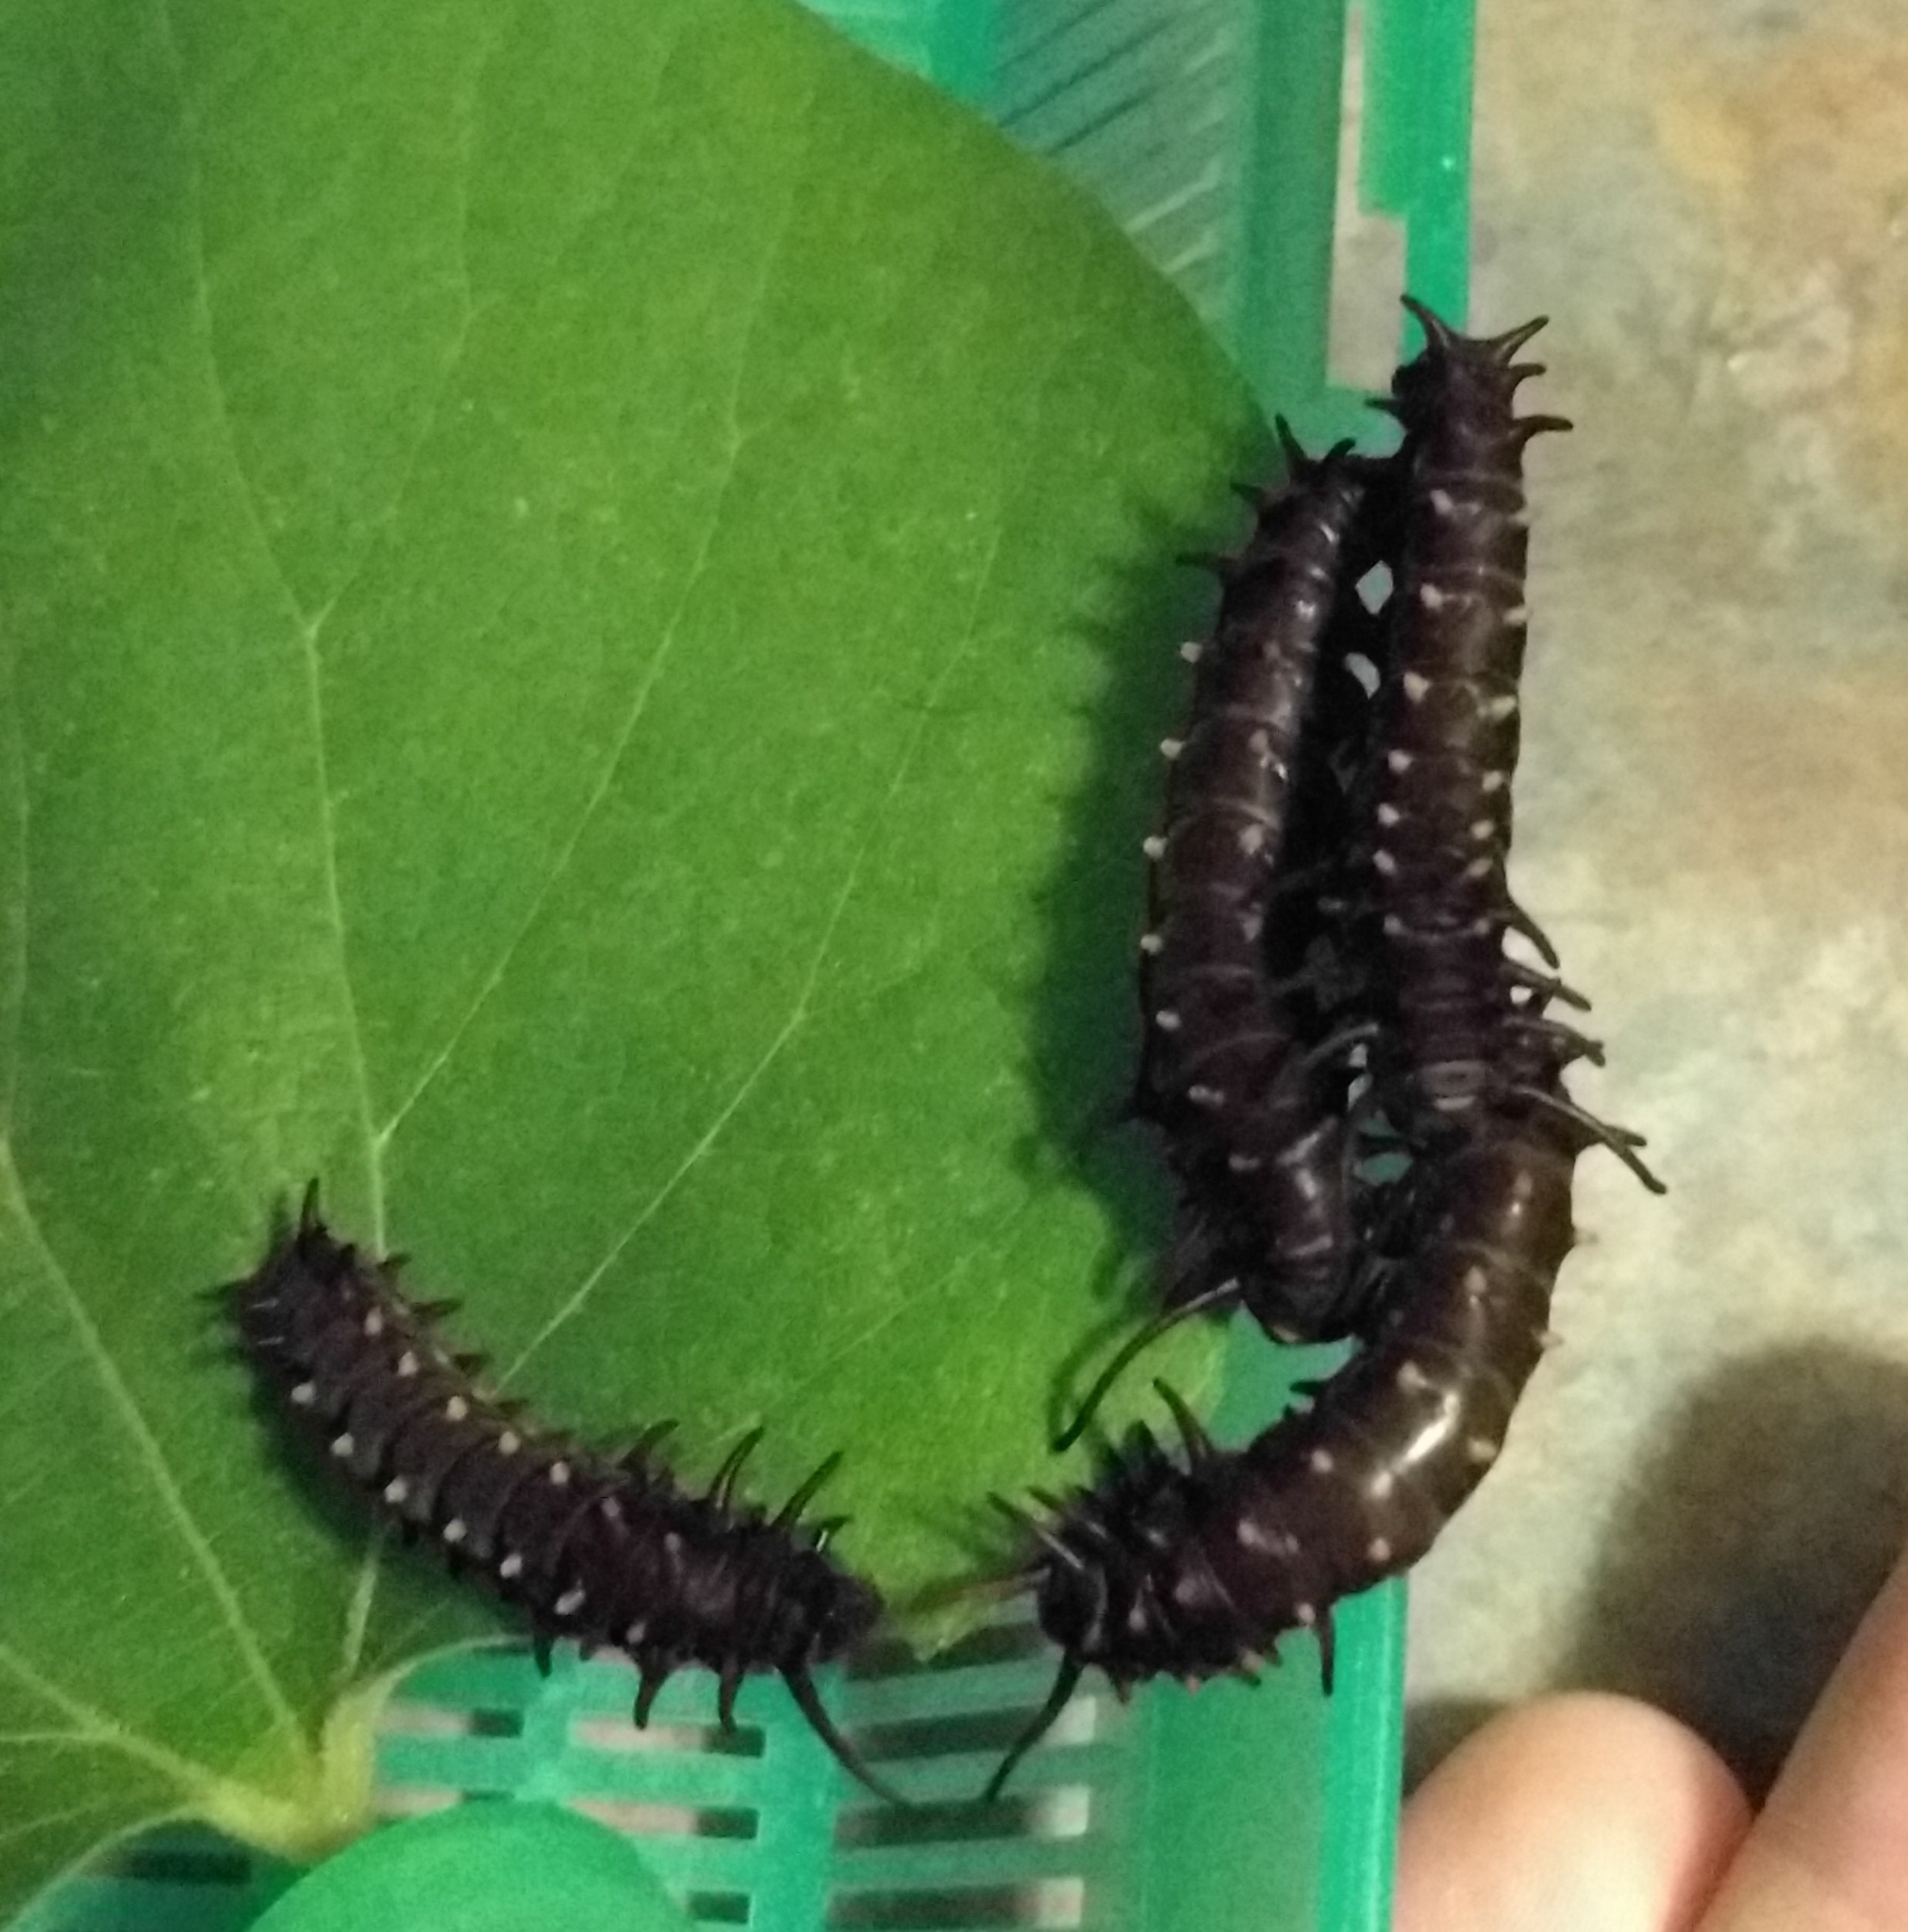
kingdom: Animalia
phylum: Arthropoda
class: Insecta
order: Lepidoptera
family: Papilionidae
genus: Battus
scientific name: Battus philenor
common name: Pipevine swallowtail
